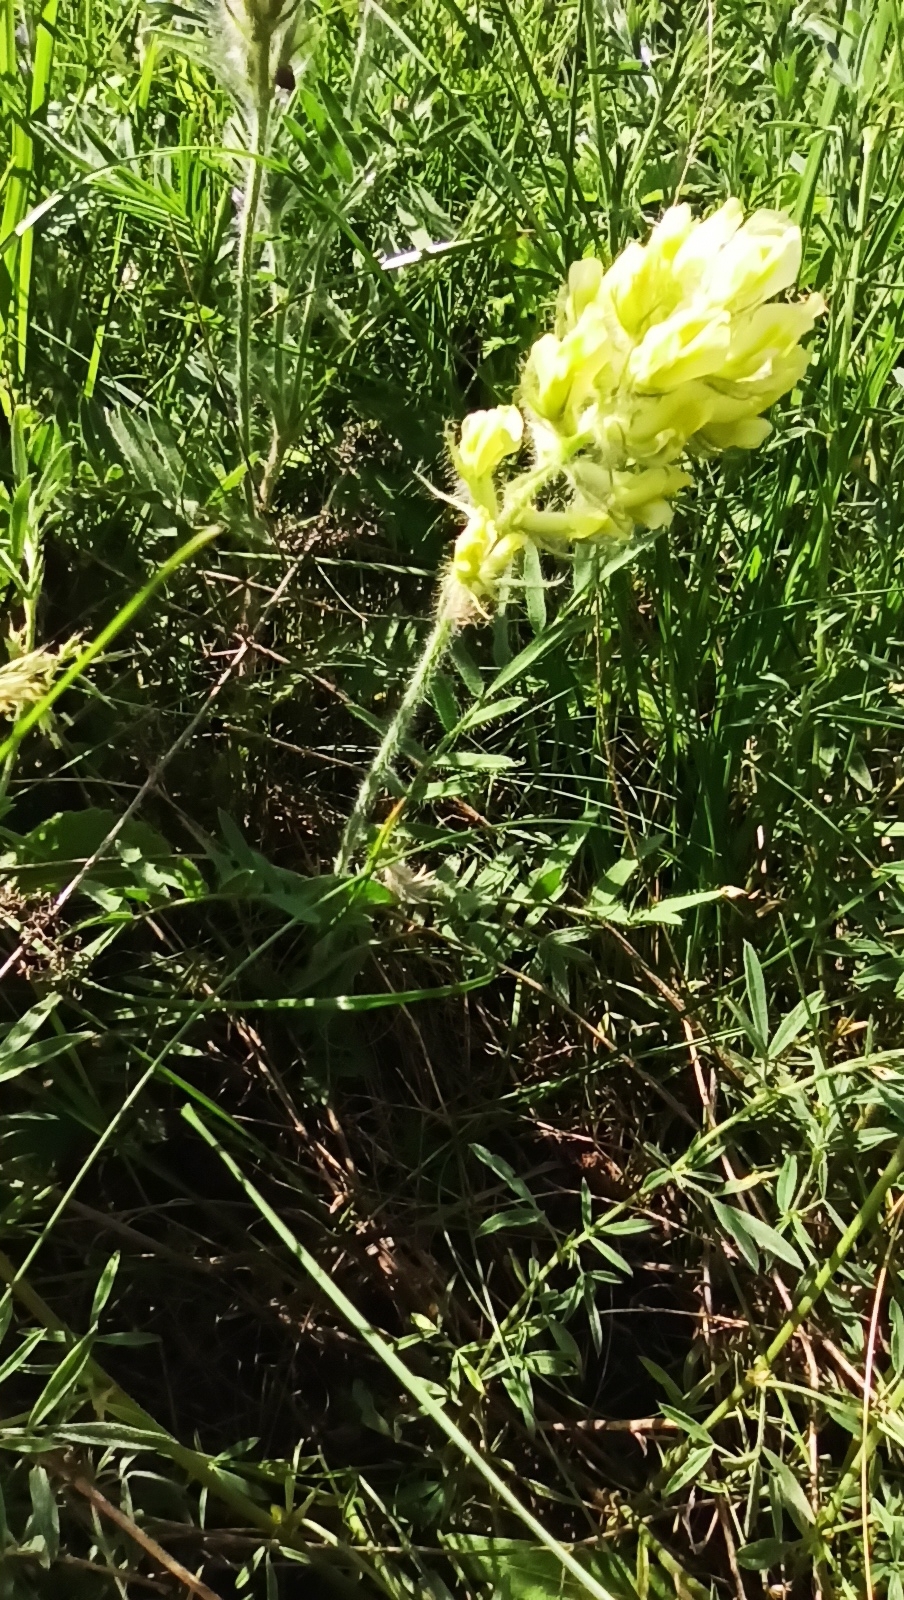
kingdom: Plantae
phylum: Tracheophyta
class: Magnoliopsida
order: Fabales
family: Fabaceae
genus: Oxytropis
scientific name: Oxytropis pilosa
